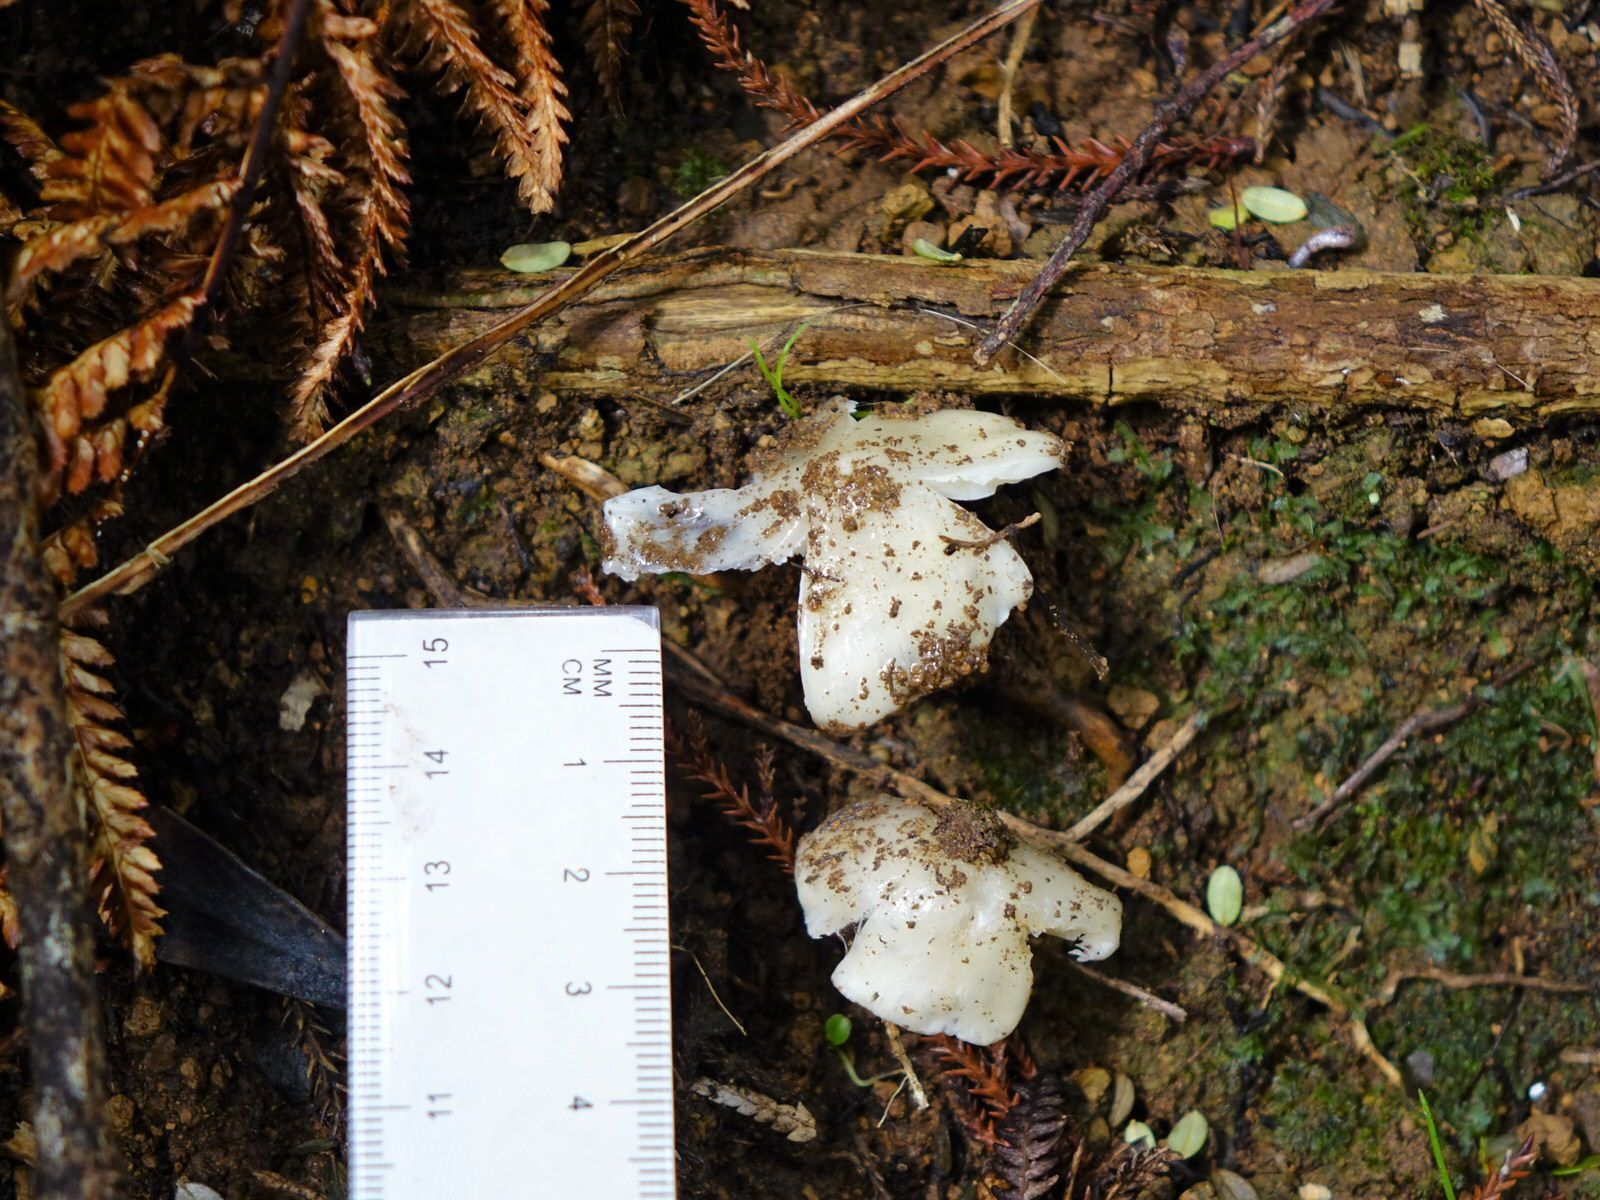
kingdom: Fungi
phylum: Basidiomycota
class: Agaricomycetes
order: Agaricales
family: Hygrophoraceae
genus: Humidicutis
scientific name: Humidicutis mavis
